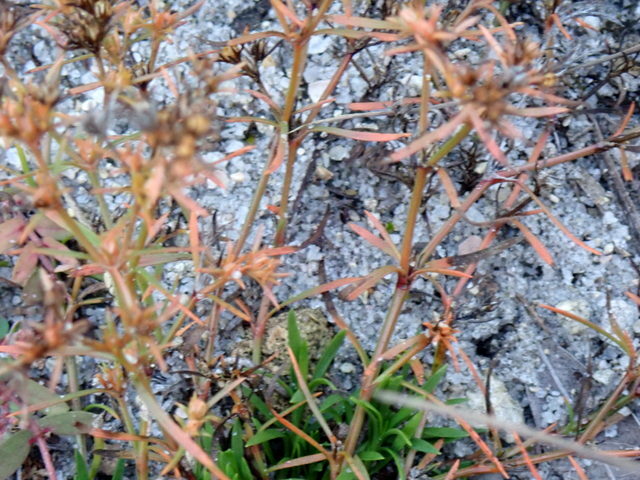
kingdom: Plantae
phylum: Tracheophyta
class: Magnoliopsida
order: Lamiales
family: Tetrachondraceae
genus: Polypremum
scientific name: Polypremum procumbens
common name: Juniper-leaf
